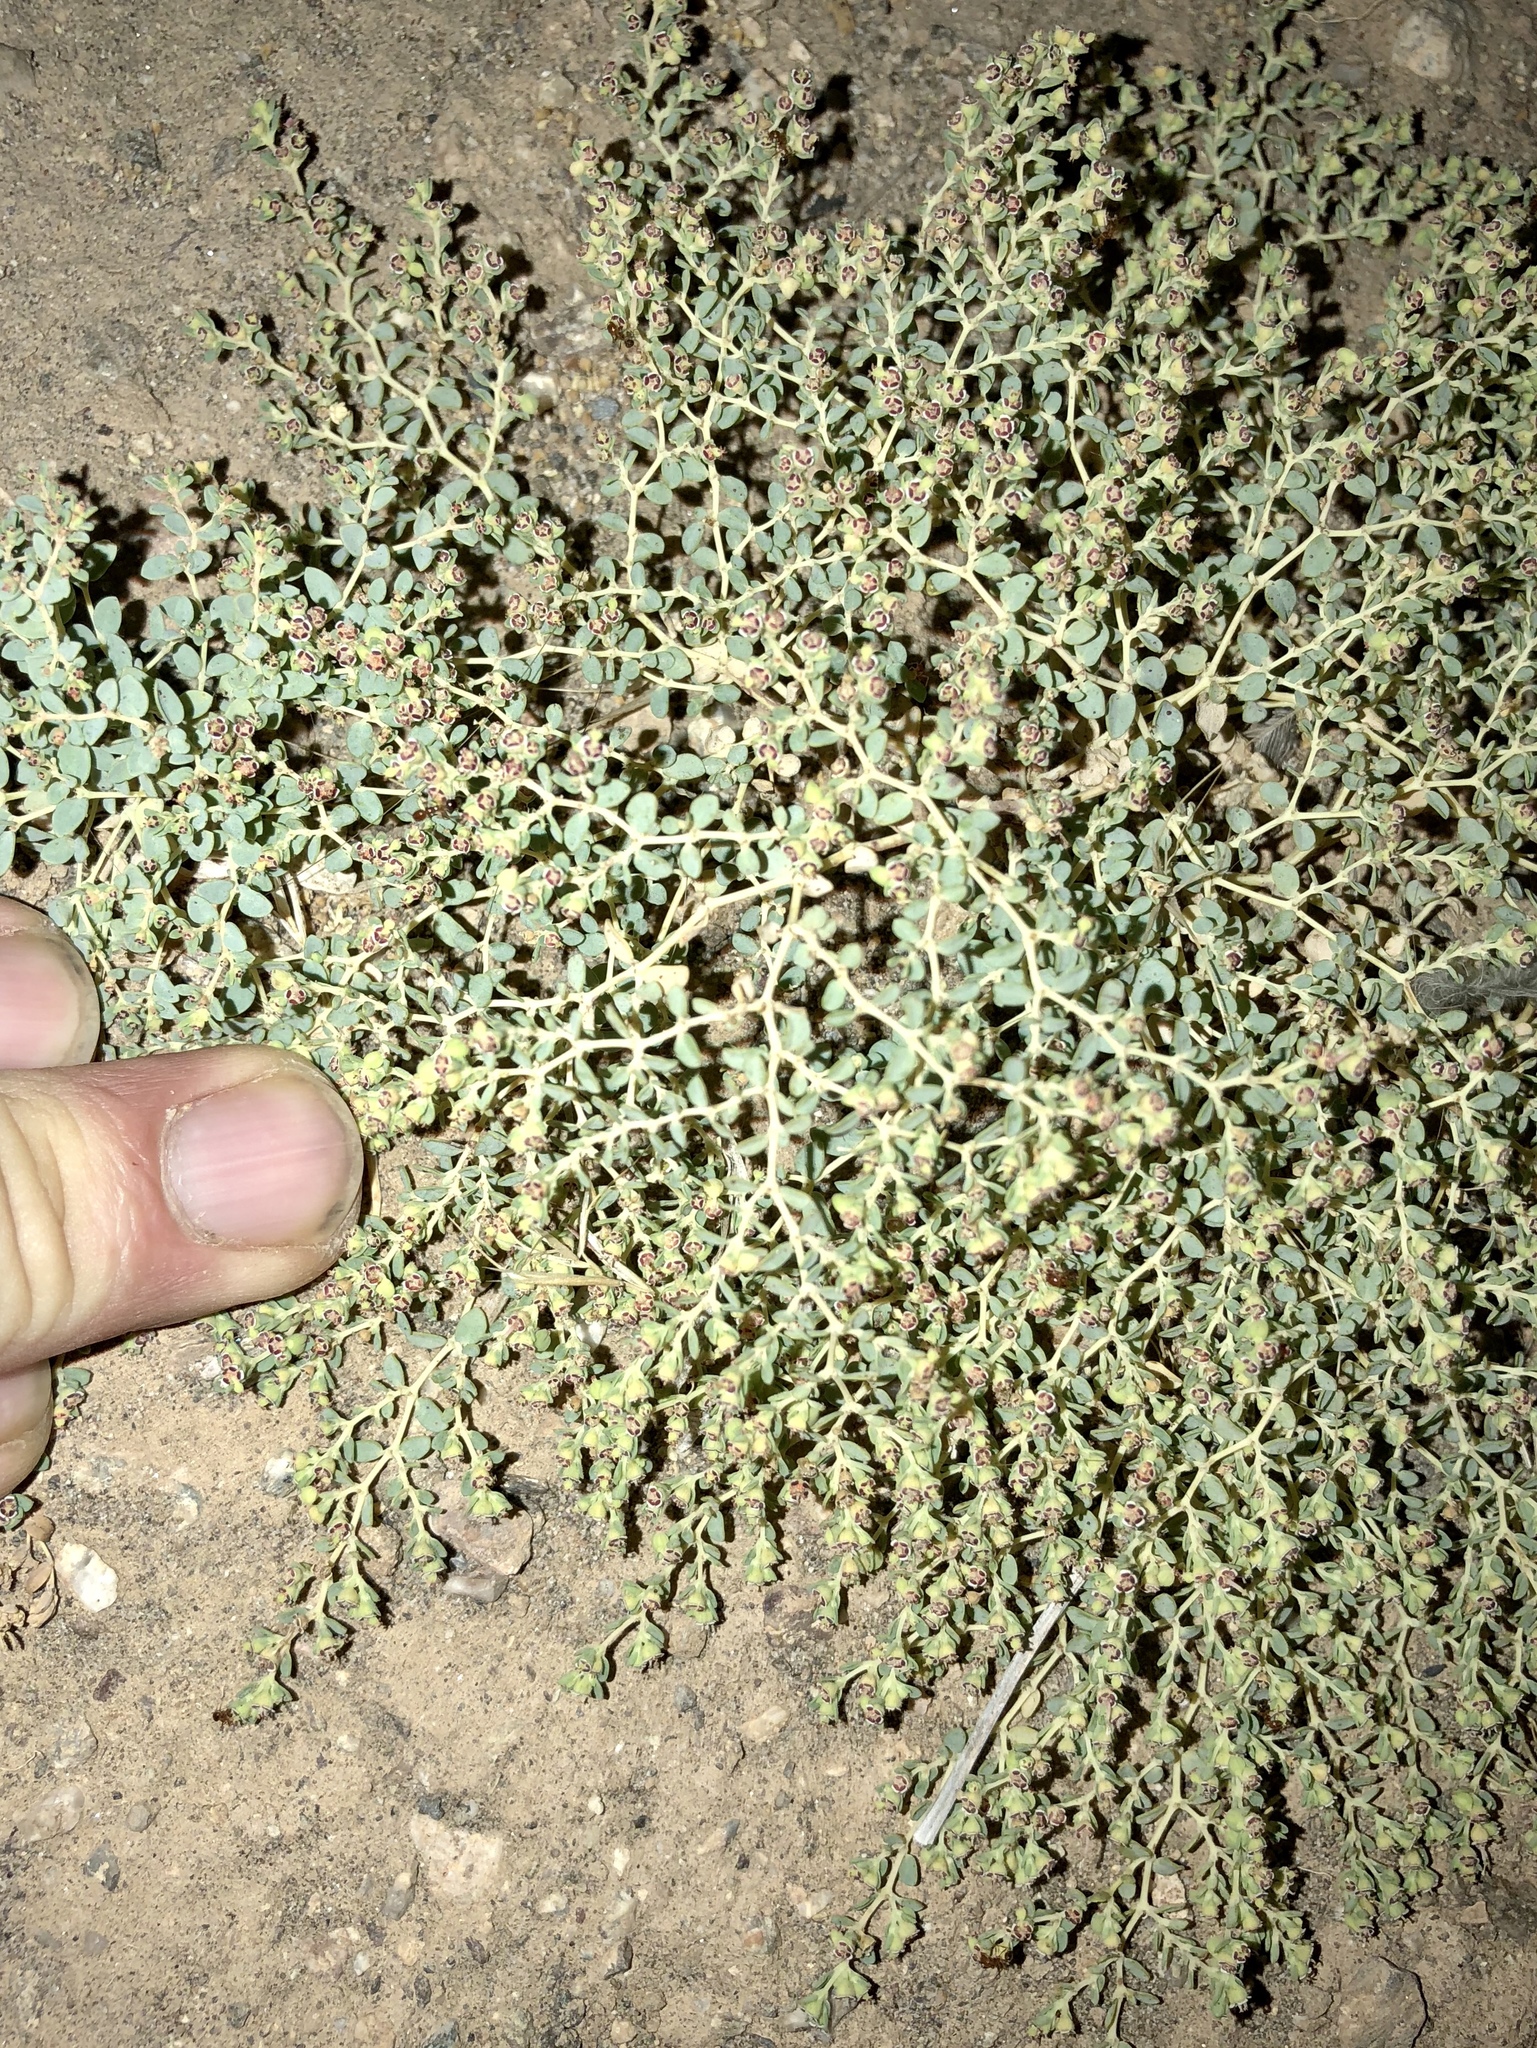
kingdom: Plantae
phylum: Tracheophyta
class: Magnoliopsida
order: Malpighiales
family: Euphorbiaceae
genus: Euphorbia
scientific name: Euphorbia polycarpa
